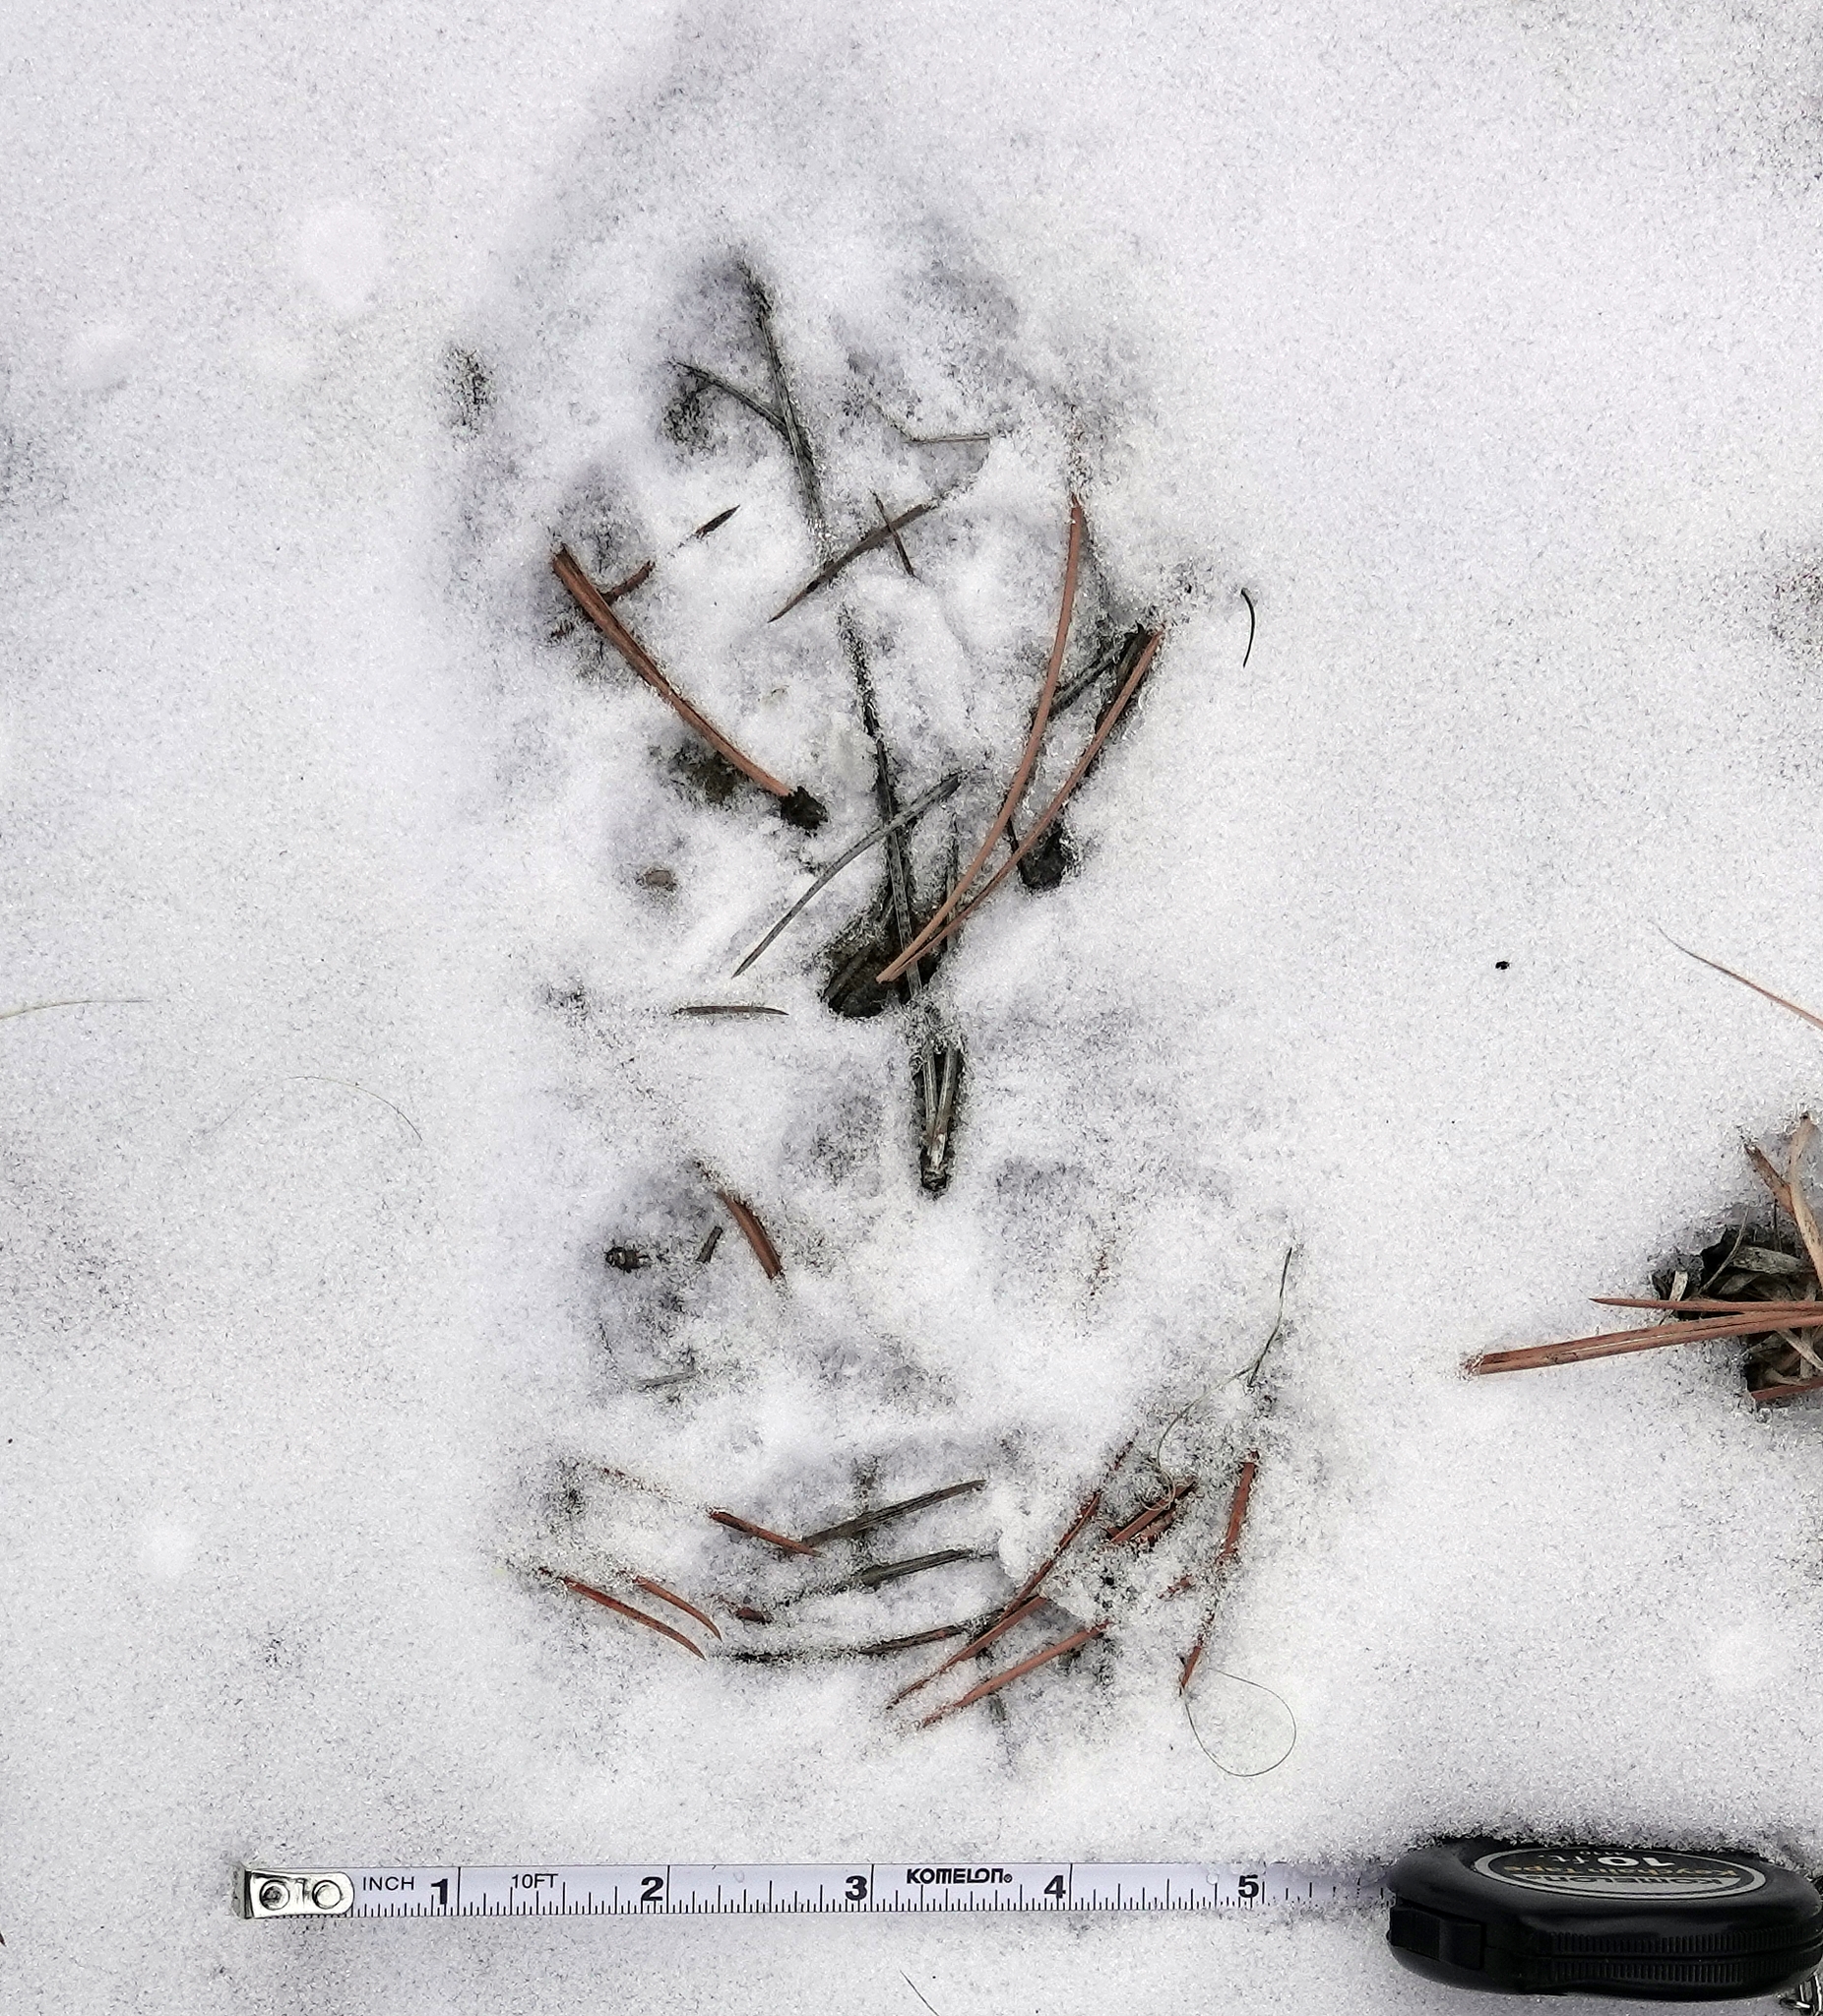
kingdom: Animalia
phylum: Chordata
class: Mammalia
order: Carnivora
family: Felidae
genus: Puma
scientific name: Puma concolor
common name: Puma
